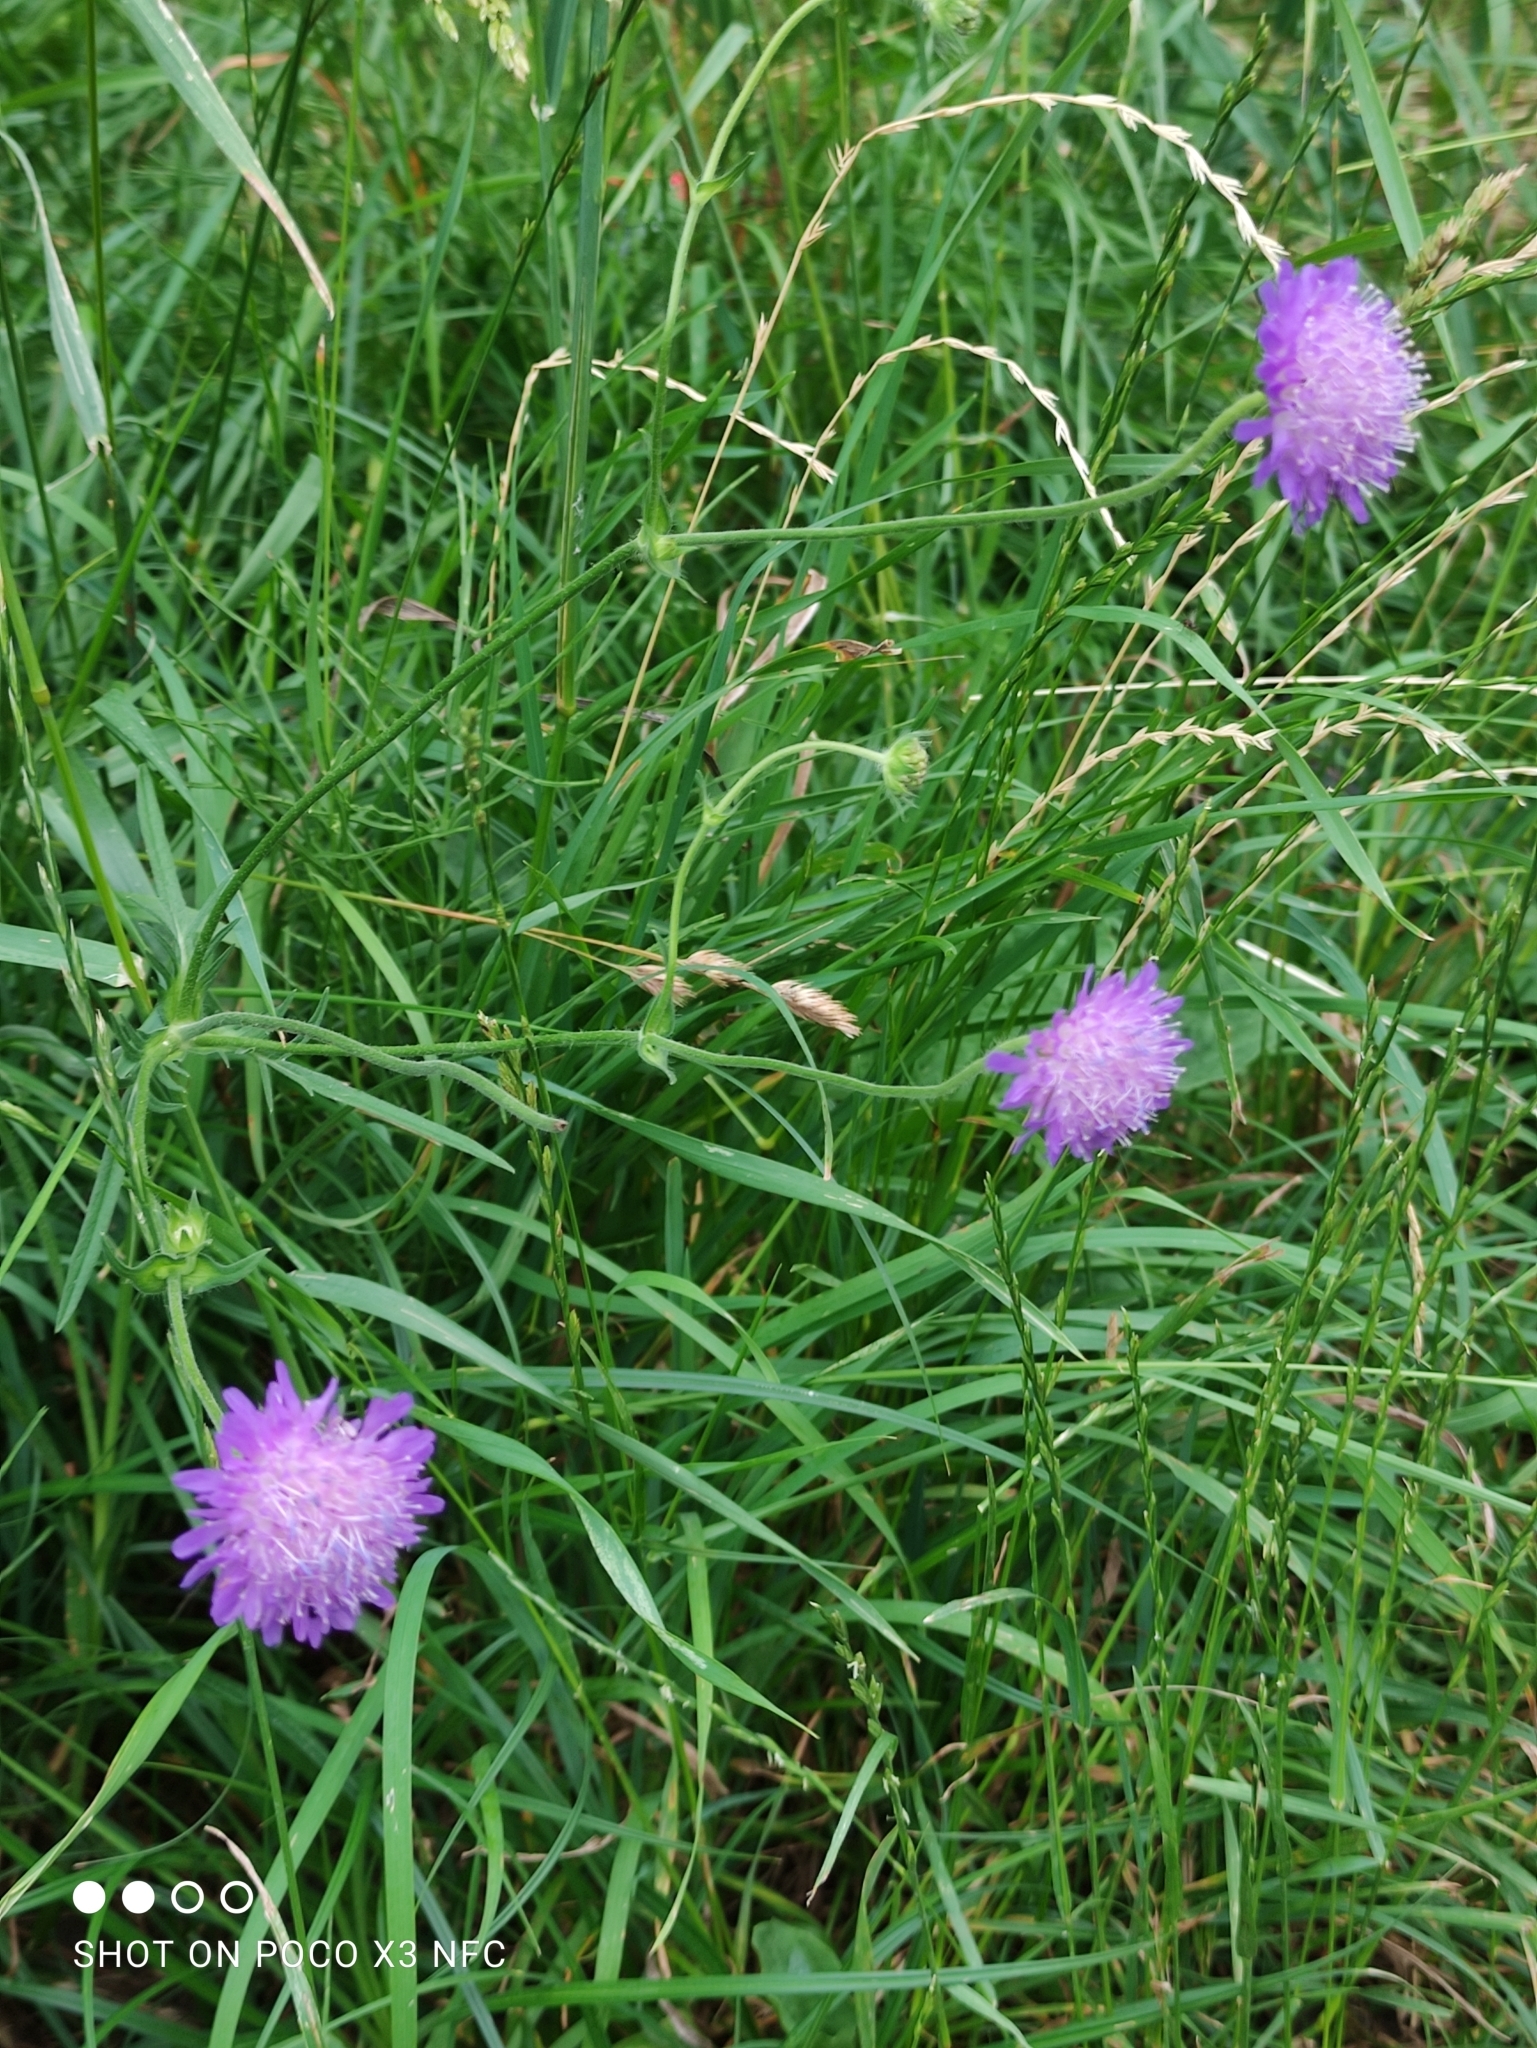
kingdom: Plantae
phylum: Tracheophyta
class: Magnoliopsida
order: Dipsacales
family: Caprifoliaceae
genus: Knautia
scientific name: Knautia arvensis
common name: Field scabiosa
